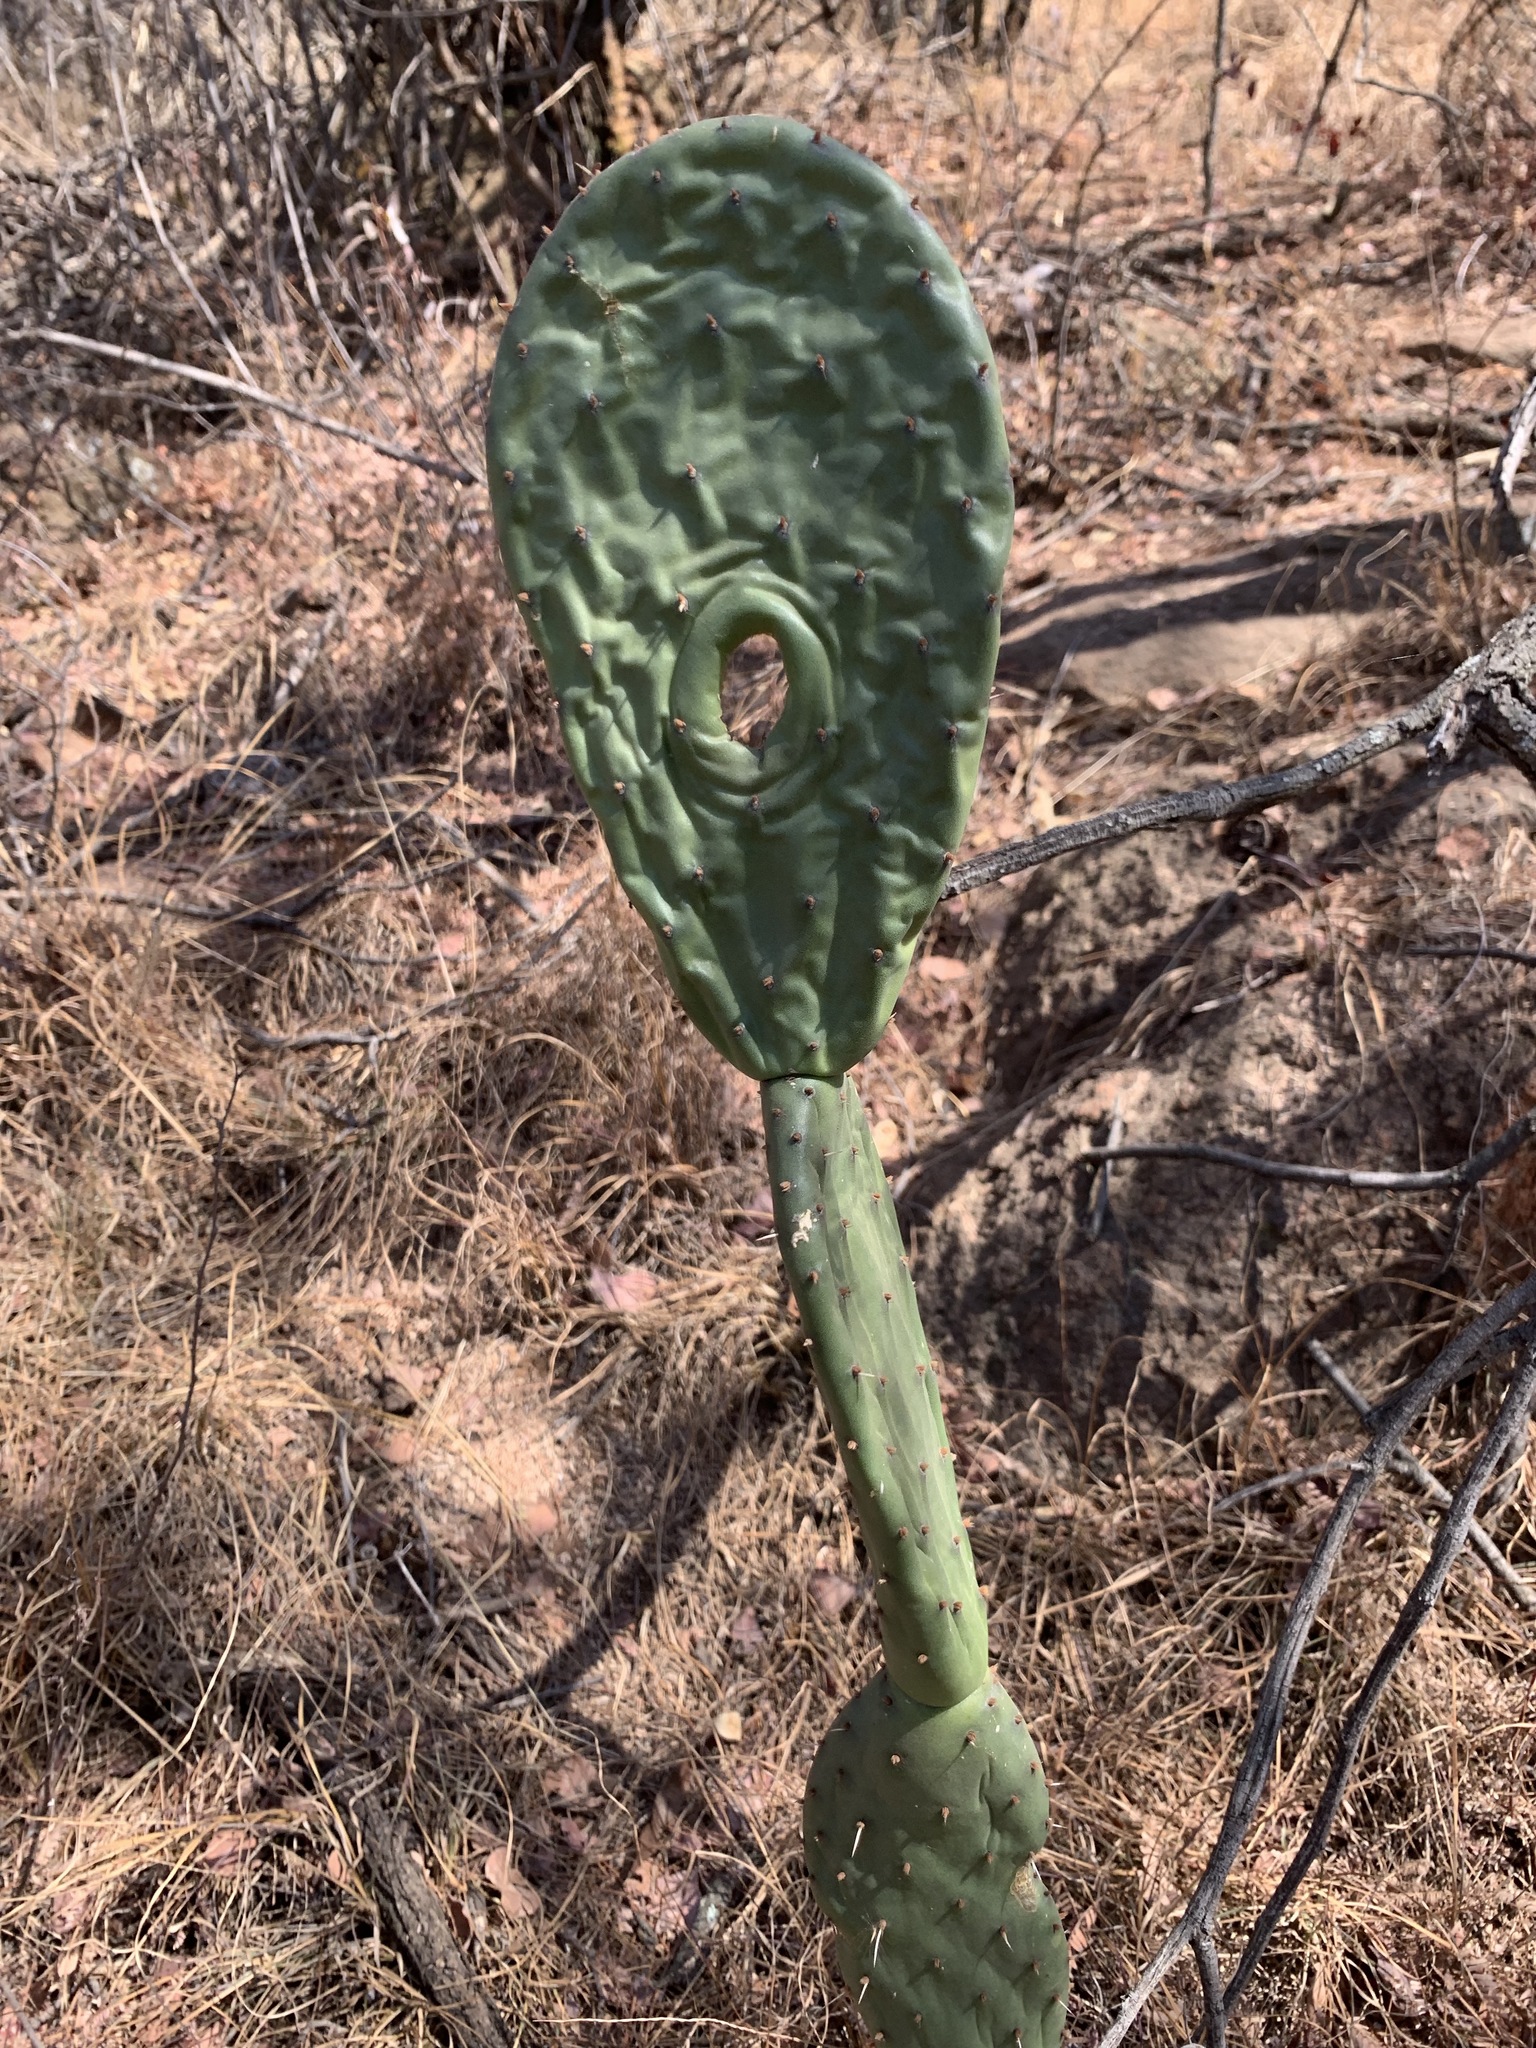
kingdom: Plantae
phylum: Tracheophyta
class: Magnoliopsida
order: Caryophyllales
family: Cactaceae
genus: Opuntia
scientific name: Opuntia ficus-indica
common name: Barbary fig
